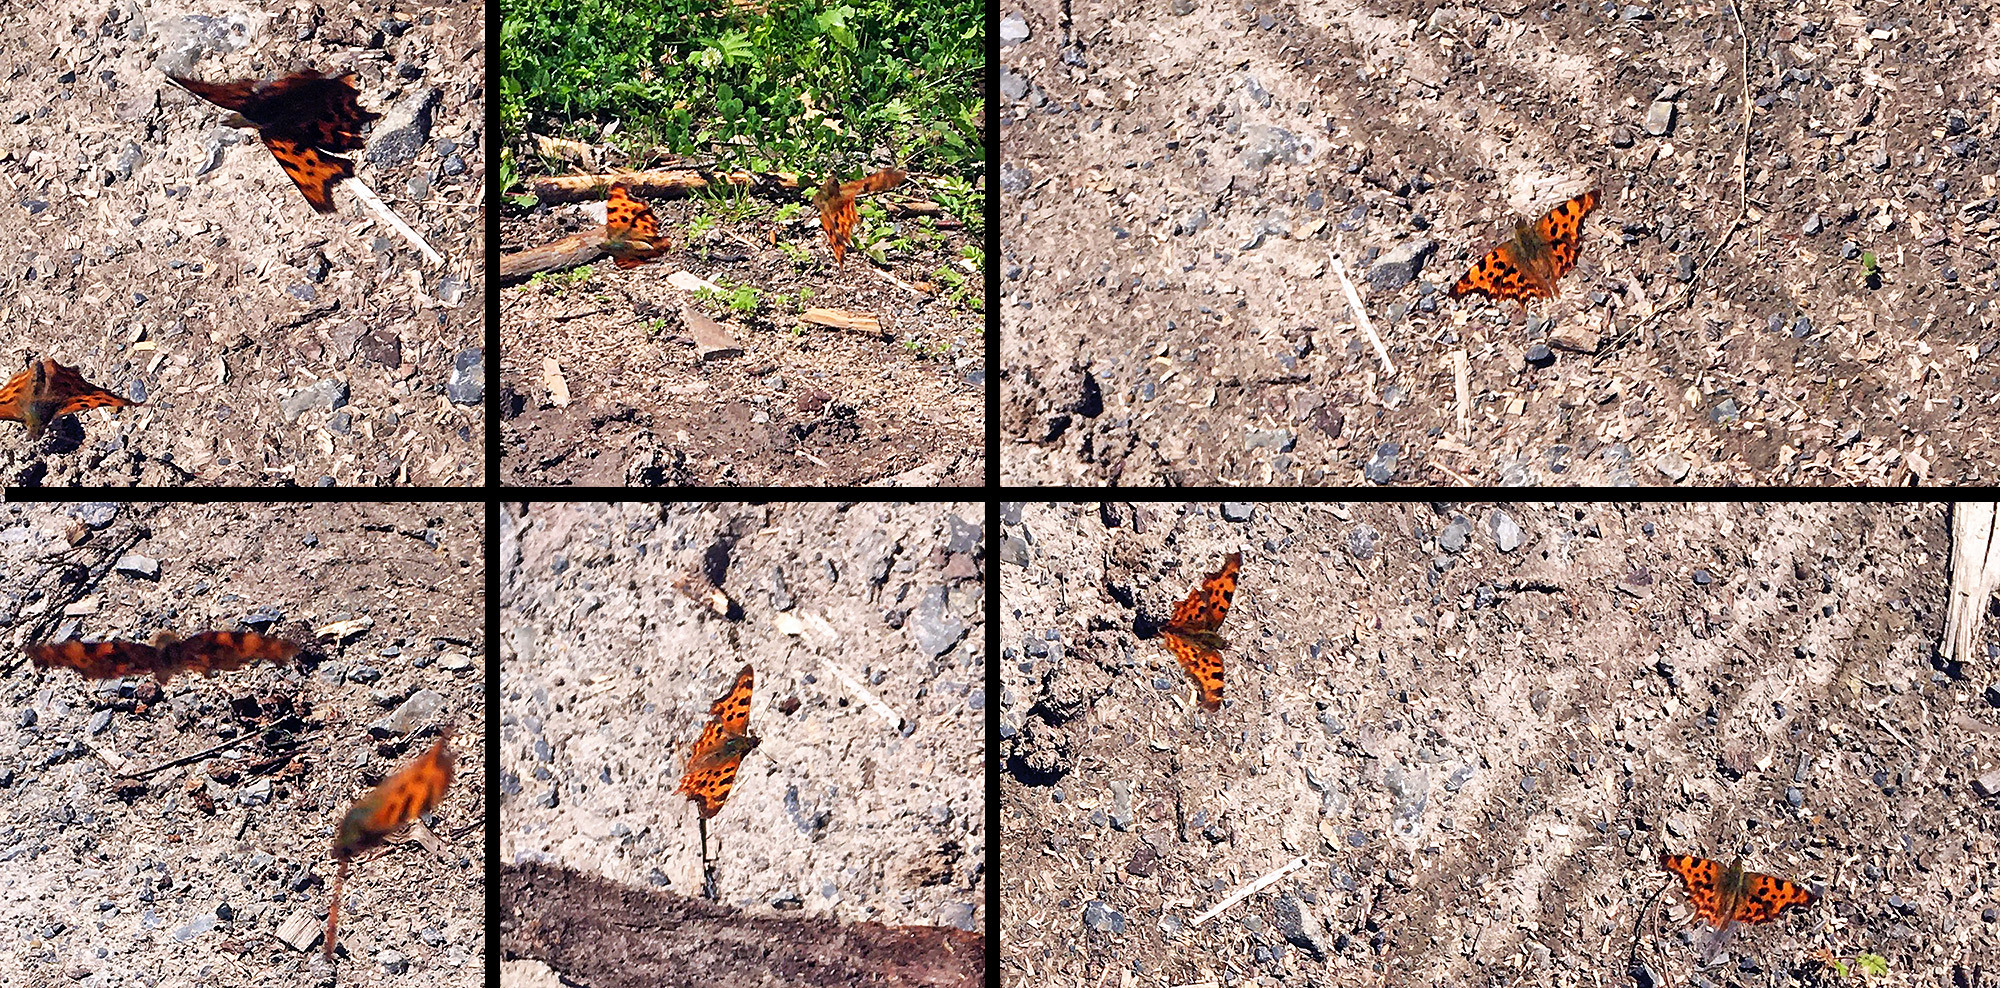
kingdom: Animalia
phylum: Arthropoda
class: Insecta
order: Lepidoptera
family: Nymphalidae
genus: Polygonia
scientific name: Polygonia c-album
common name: Comma
